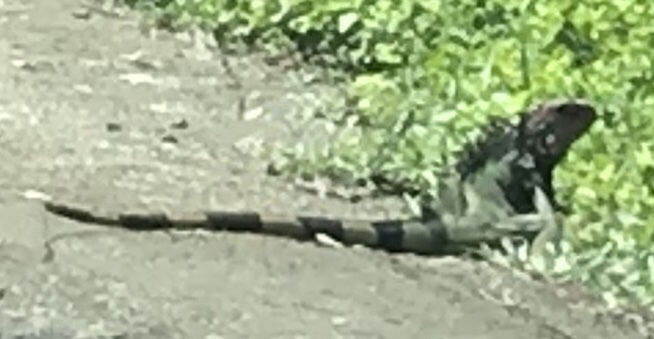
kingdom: Animalia
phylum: Chordata
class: Squamata
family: Iguanidae
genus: Iguana
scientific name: Iguana iguana
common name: Green iguana
